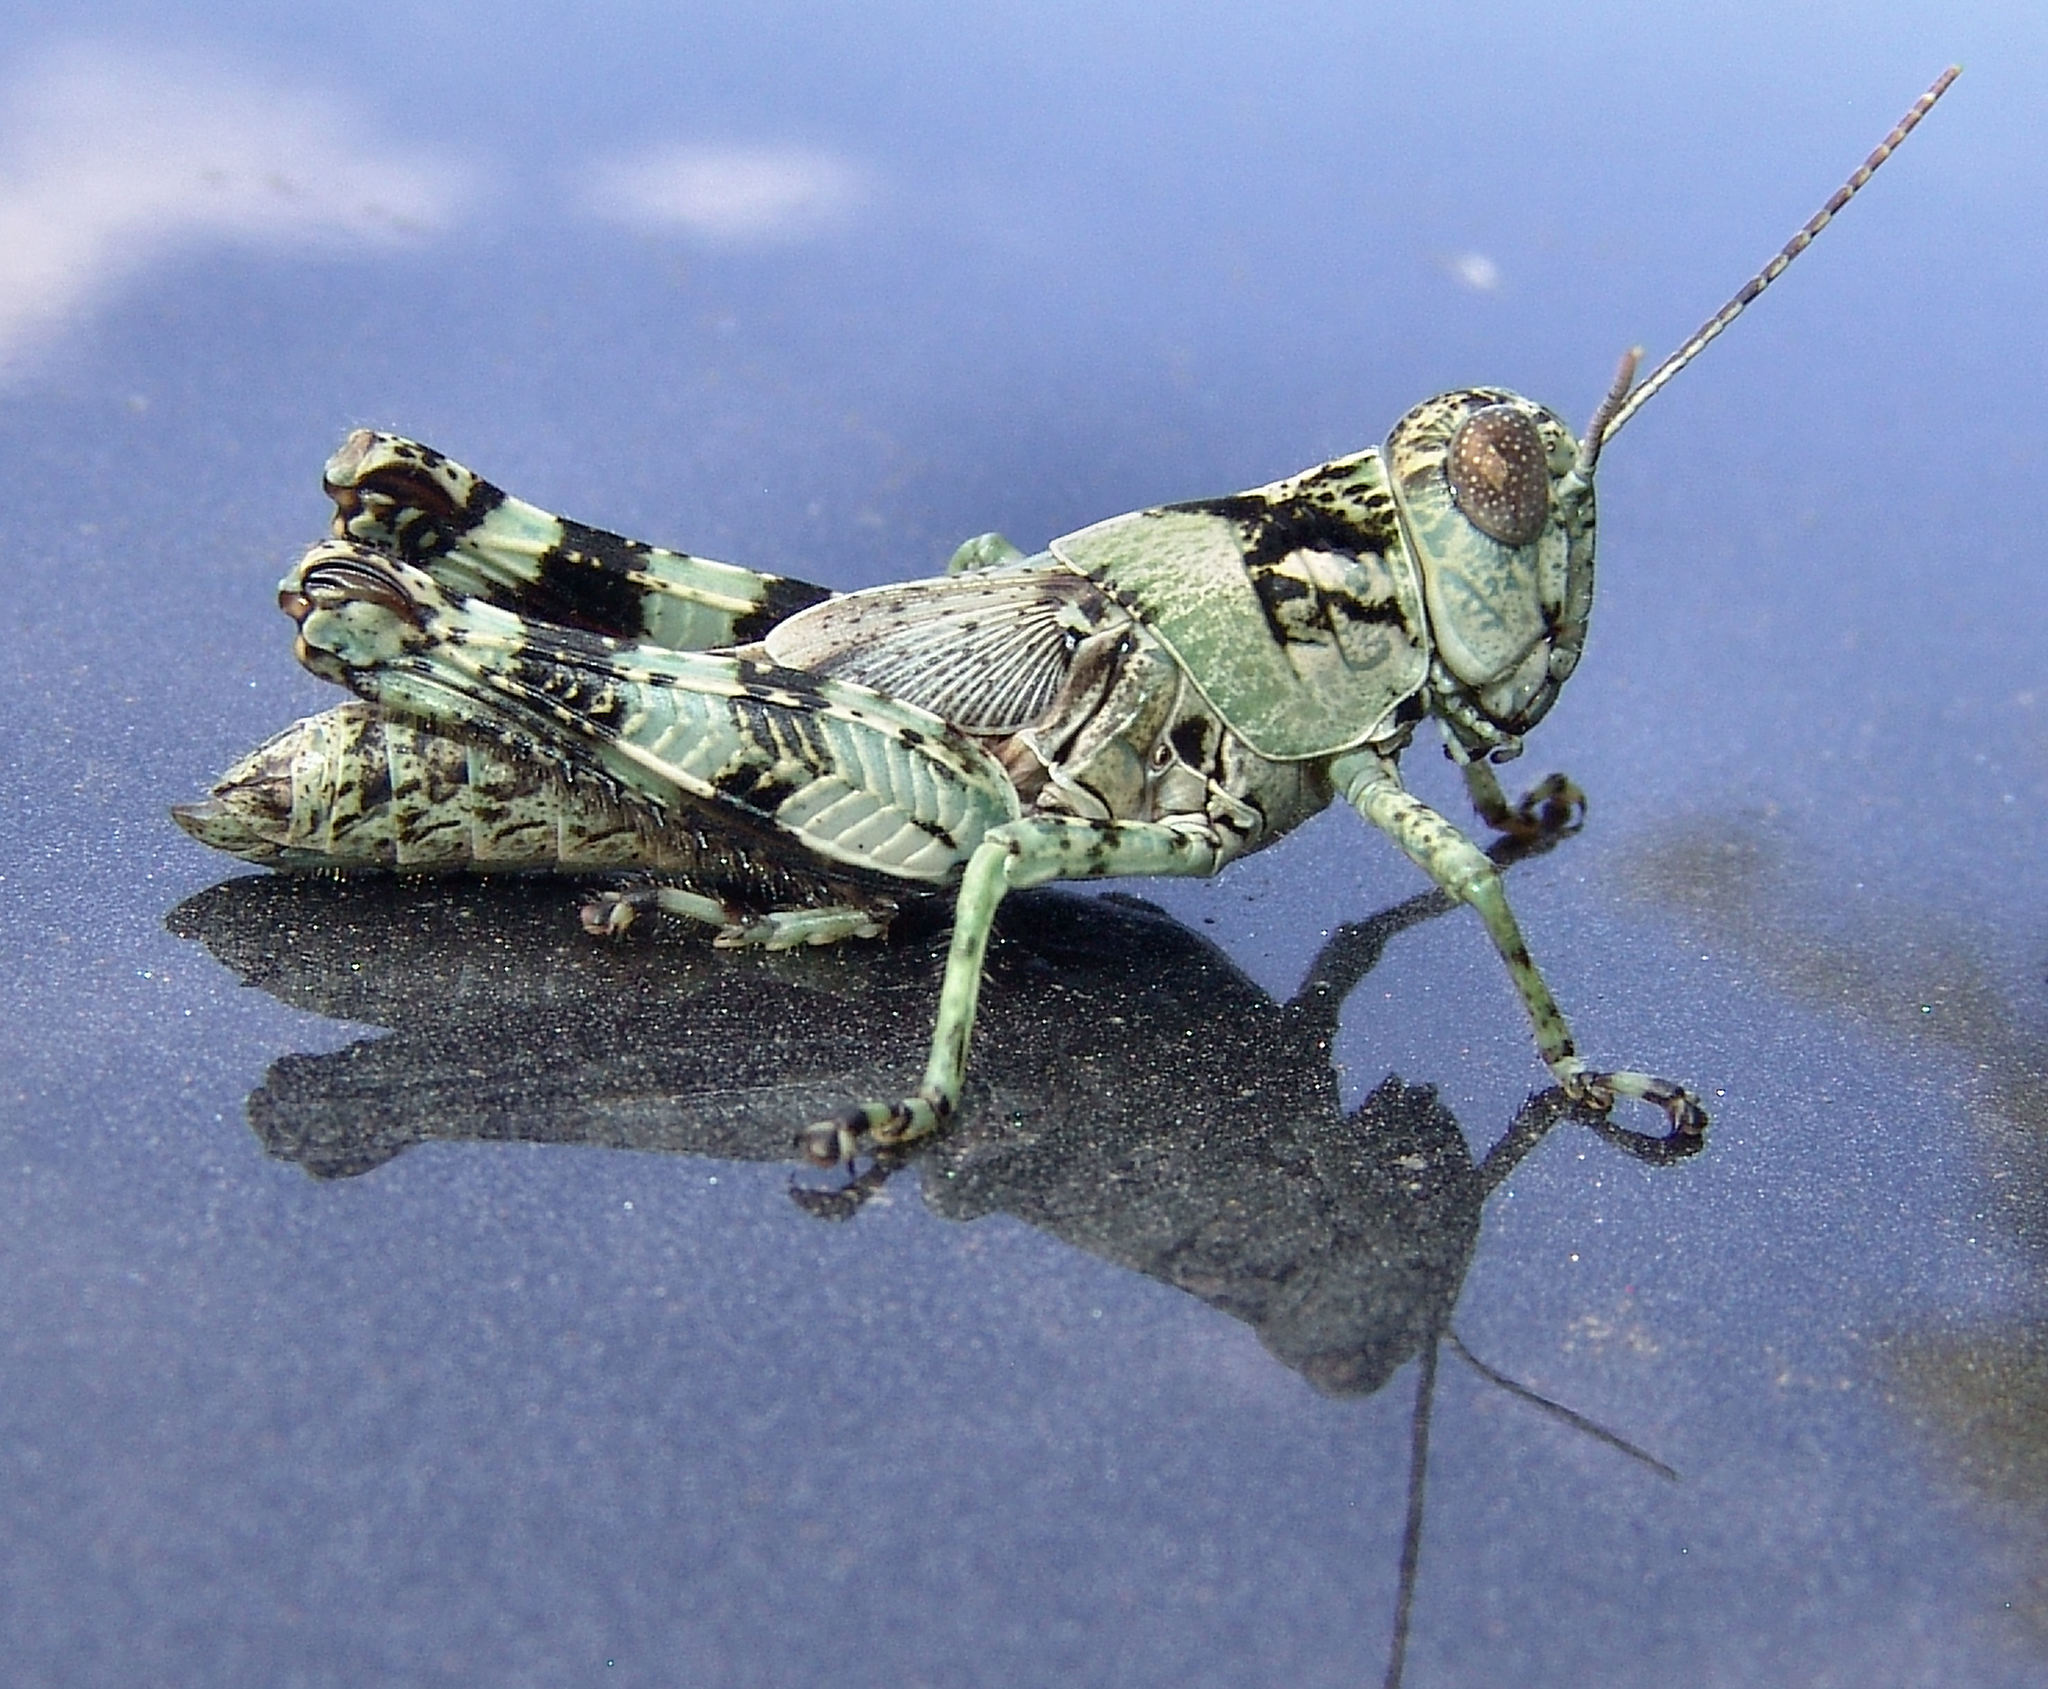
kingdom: Animalia
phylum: Arthropoda
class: Insecta
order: Orthoptera
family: Acrididae
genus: Melanoplus
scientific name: Melanoplus punctulatus
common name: Pine-tree spur-throat grasshopper
